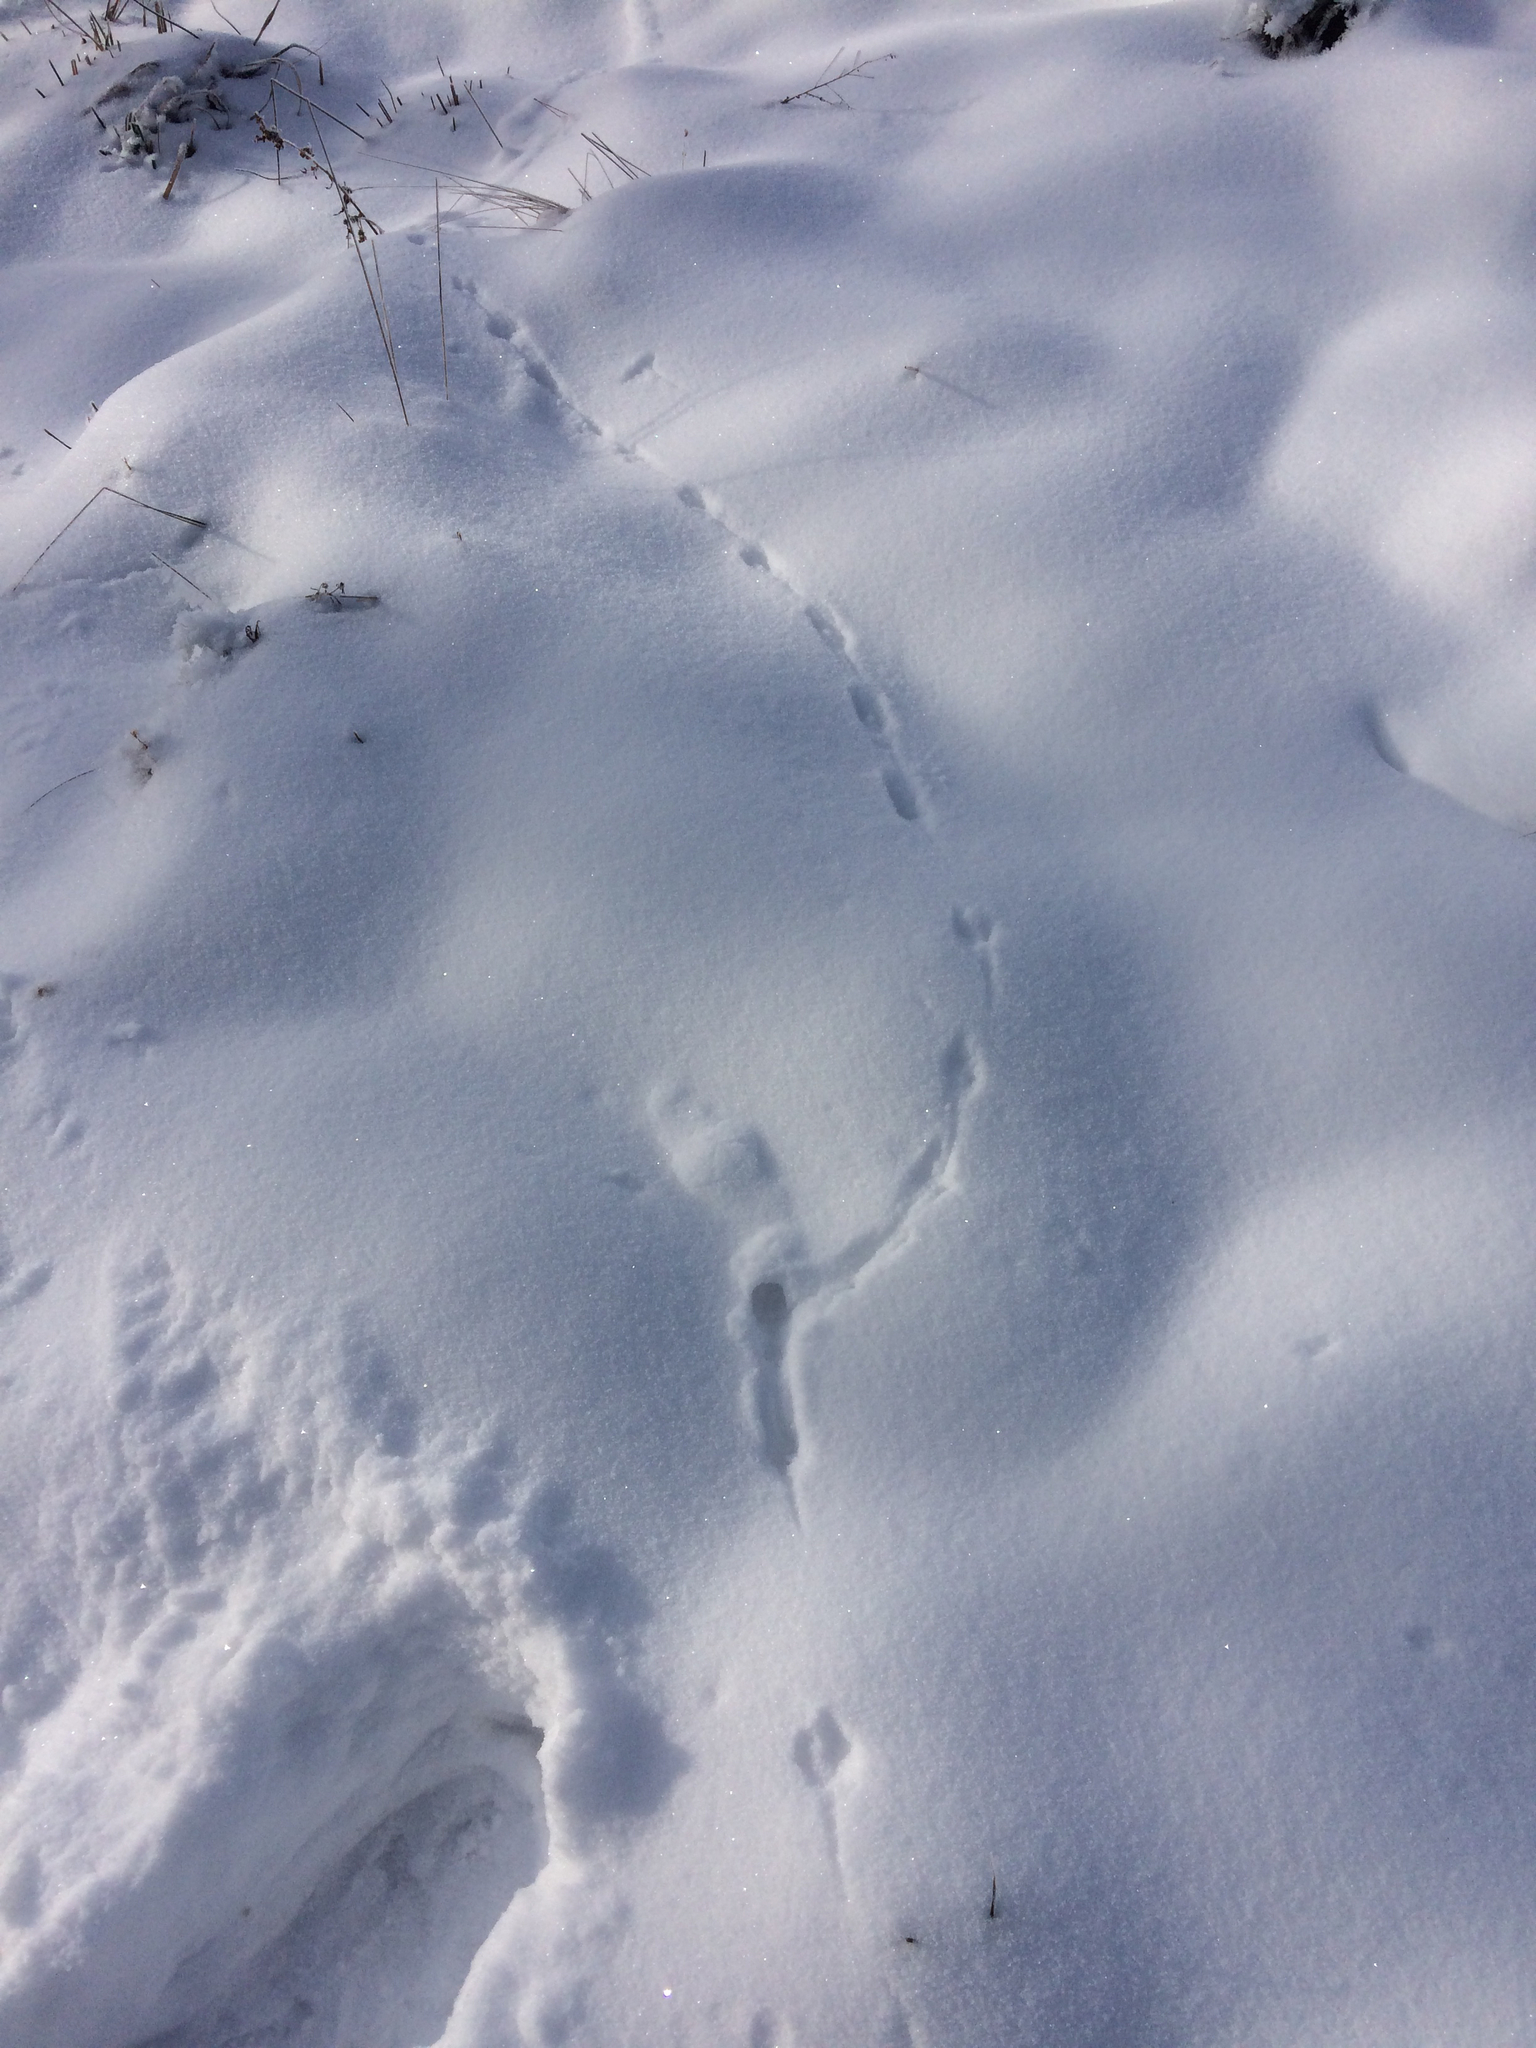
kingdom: Animalia
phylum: Chordata
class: Mammalia
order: Carnivora
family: Mustelidae
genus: Mustela
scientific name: Mustela erminea
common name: Stoat
